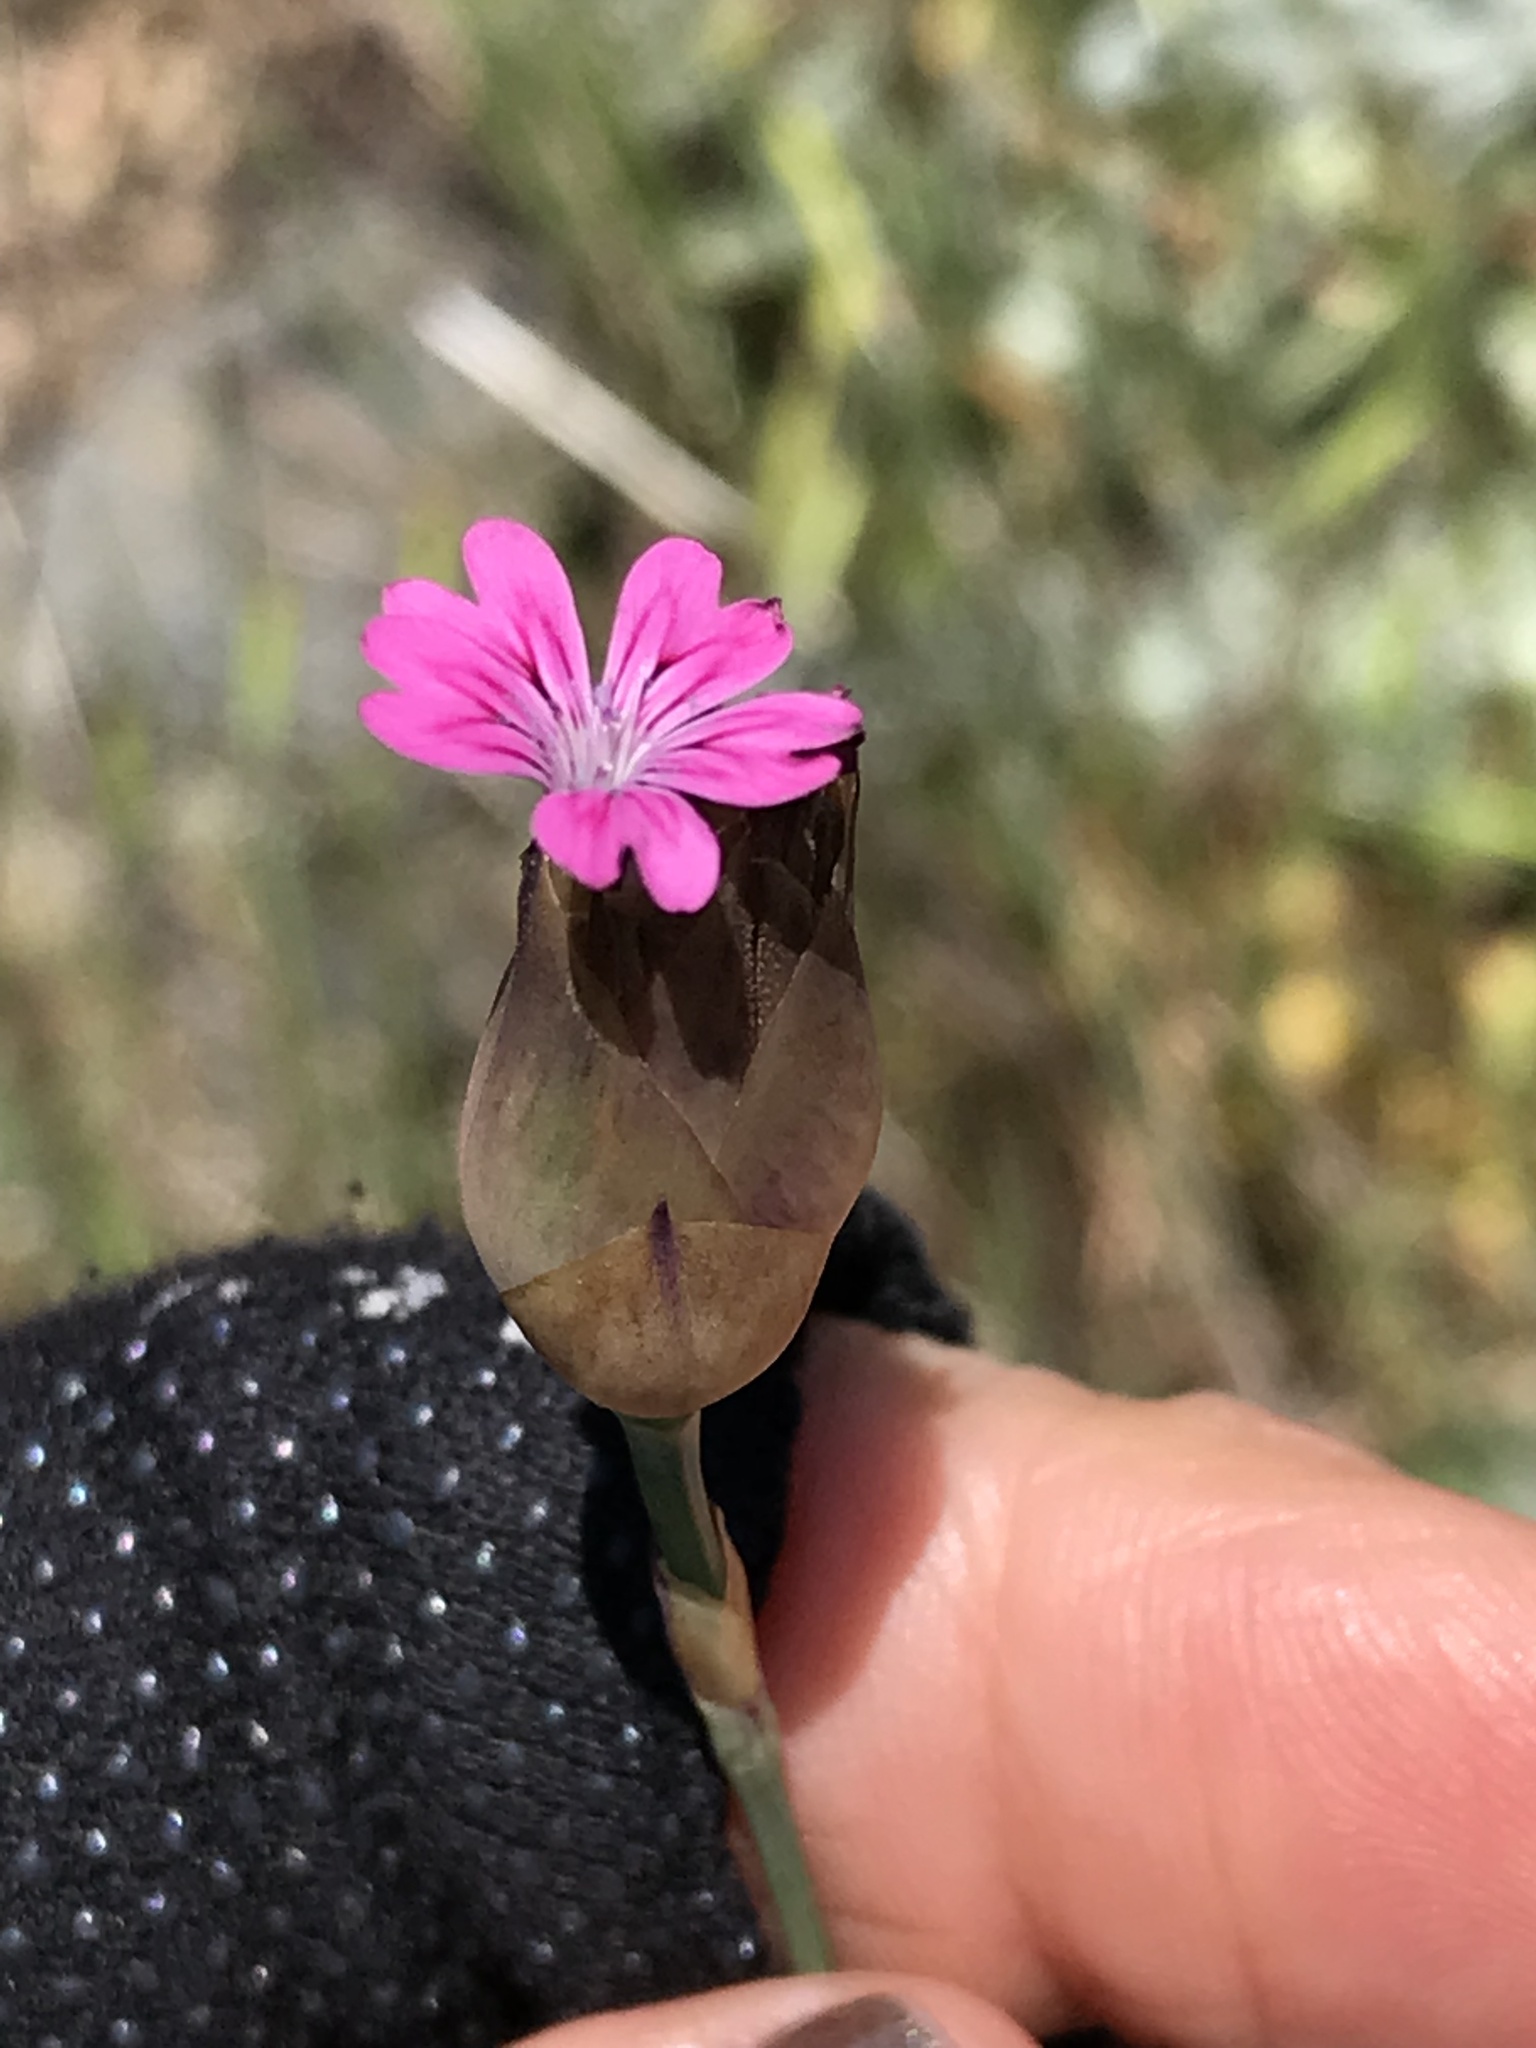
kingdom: Plantae
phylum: Tracheophyta
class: Magnoliopsida
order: Caryophyllales
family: Caryophyllaceae
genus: Petrorhagia
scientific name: Petrorhagia dubia
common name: Hairypink
